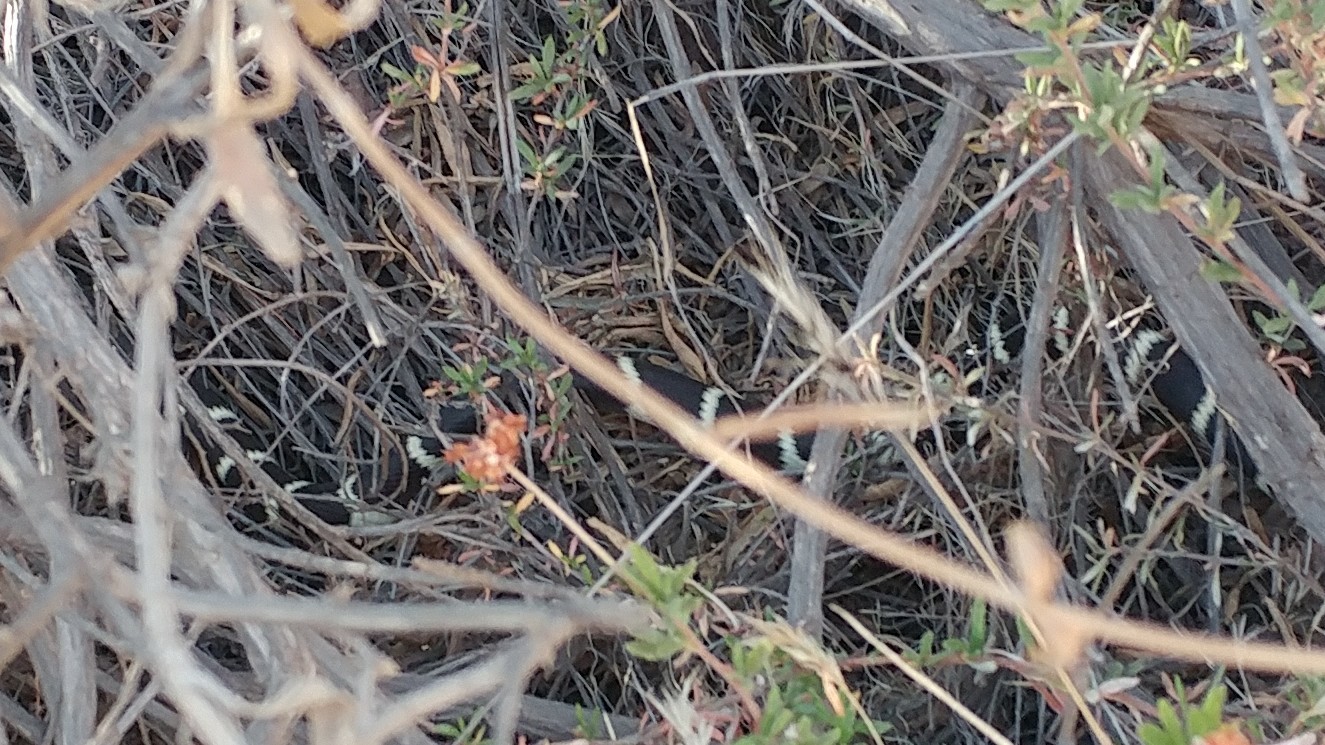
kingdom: Animalia
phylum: Chordata
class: Squamata
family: Colubridae
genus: Lampropeltis
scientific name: Lampropeltis californiae
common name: California kingsnake
